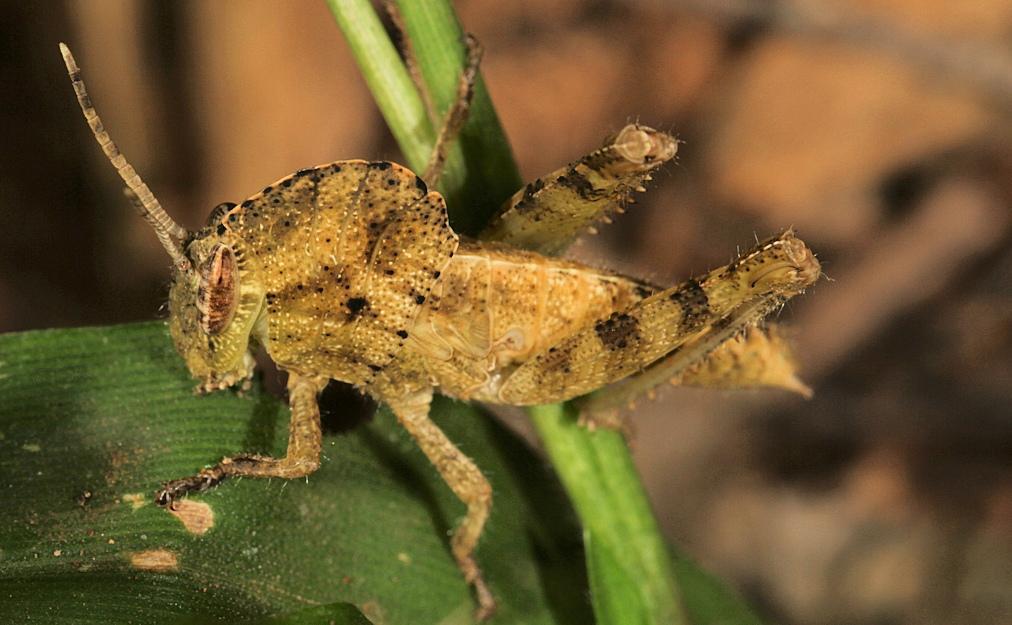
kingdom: Animalia
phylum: Arthropoda
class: Insecta
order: Orthoptera
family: Acrididae
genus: Abisares
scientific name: Abisares viridipenne
